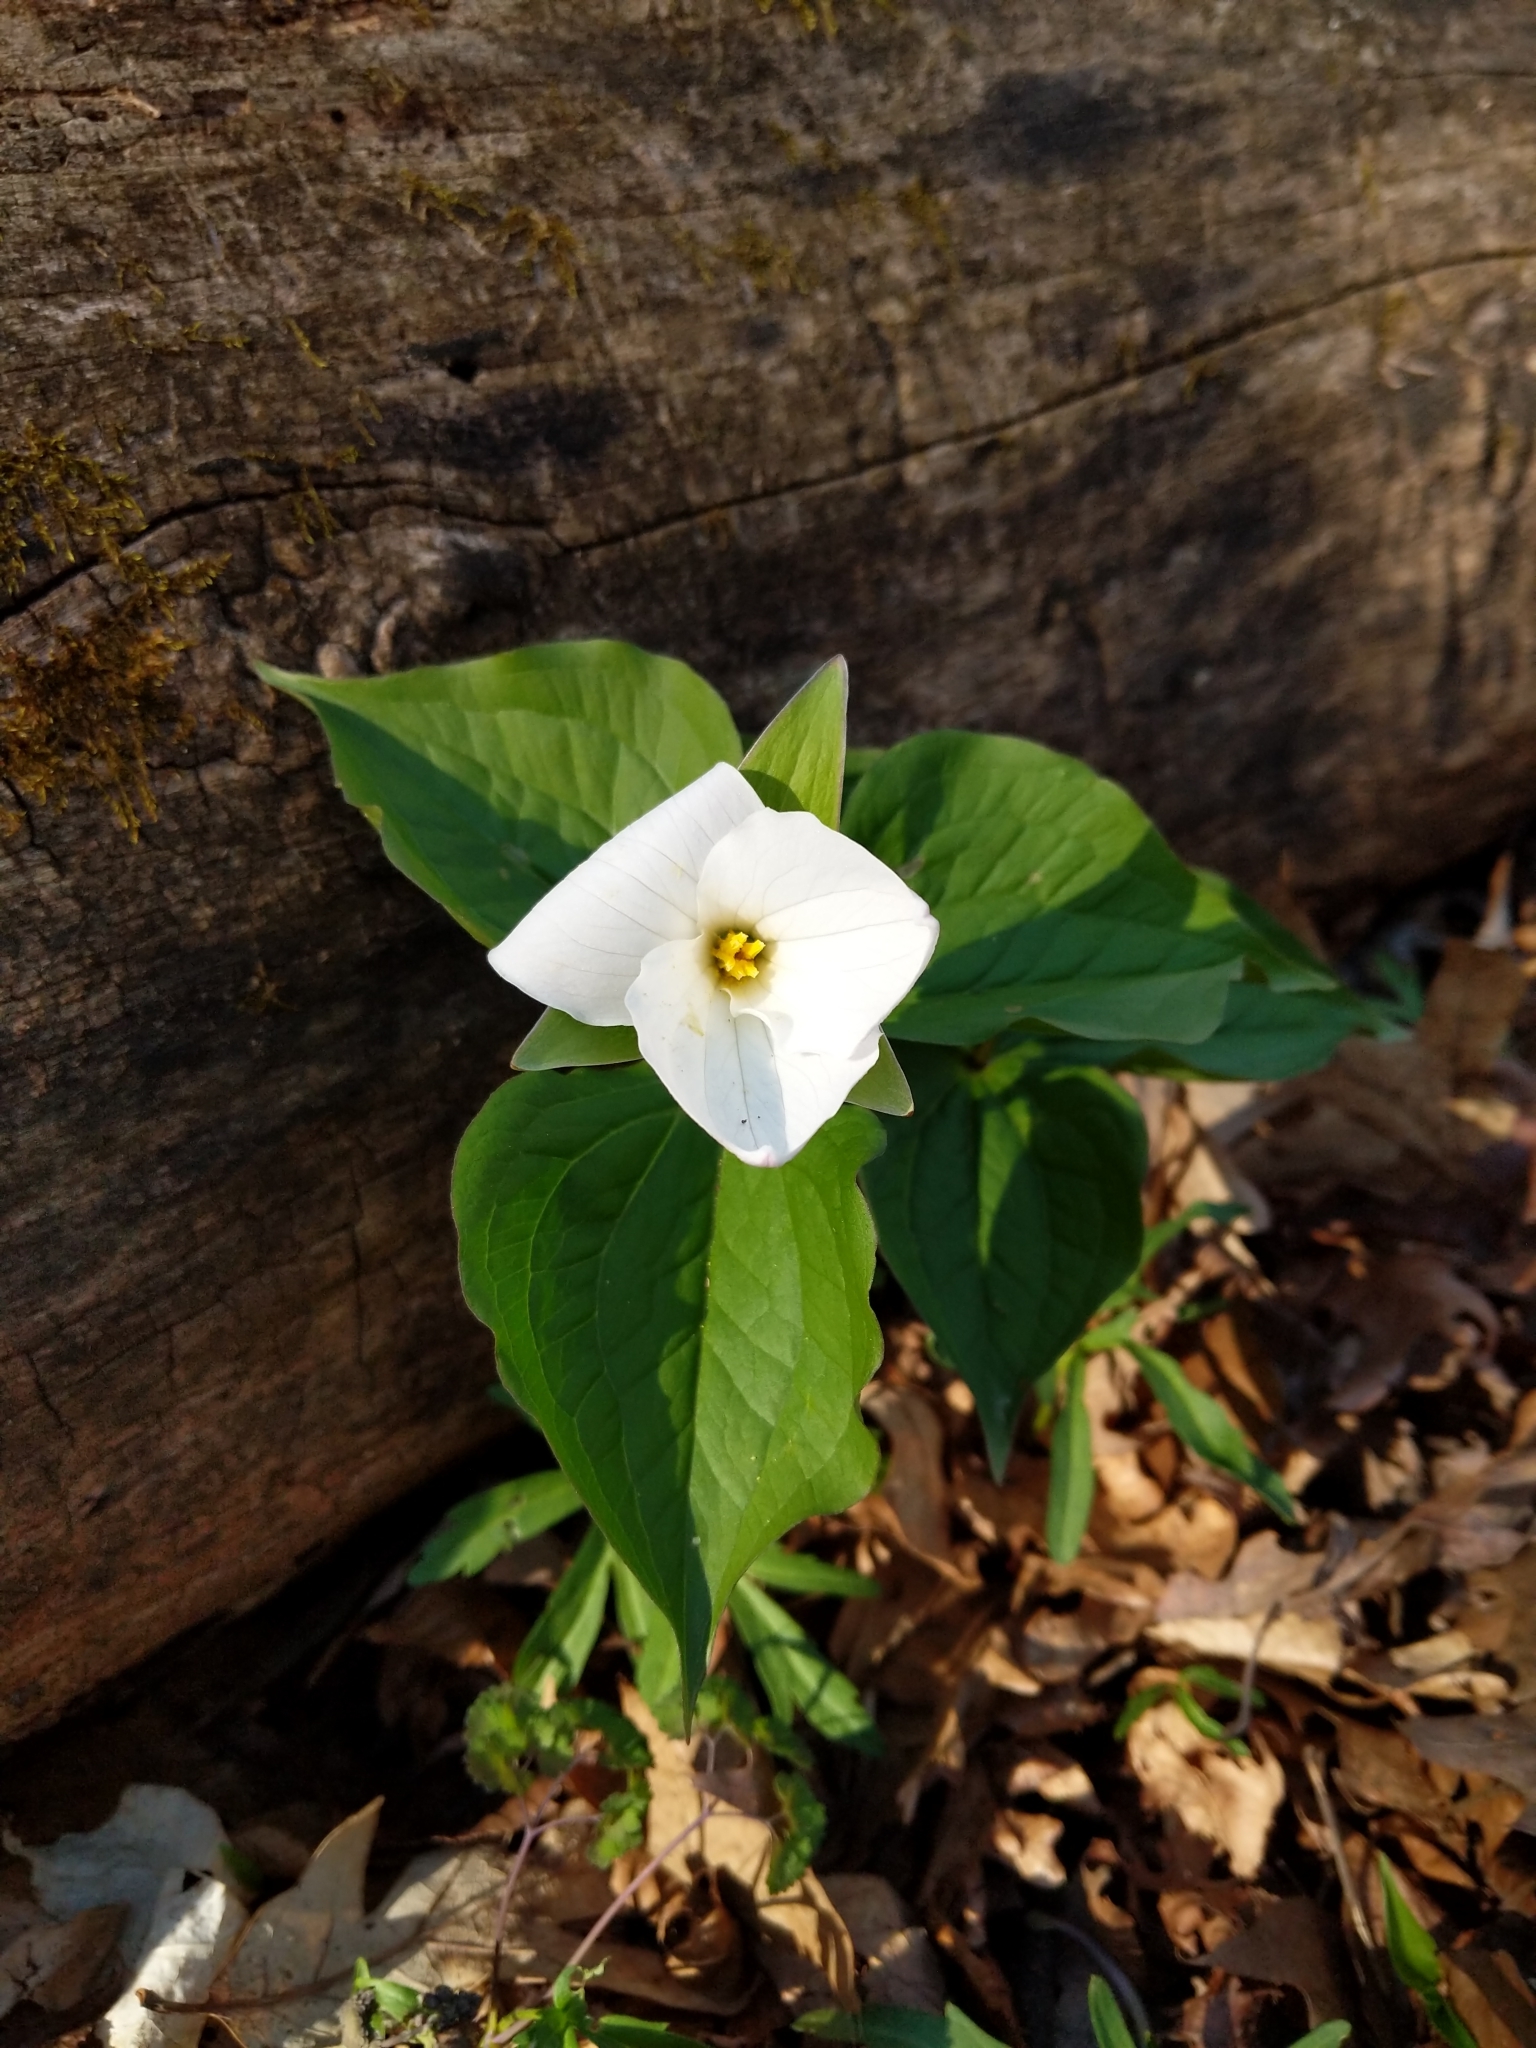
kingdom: Plantae
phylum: Tracheophyta
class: Liliopsida
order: Liliales
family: Melanthiaceae
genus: Trillium
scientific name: Trillium grandiflorum
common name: Great white trillium
